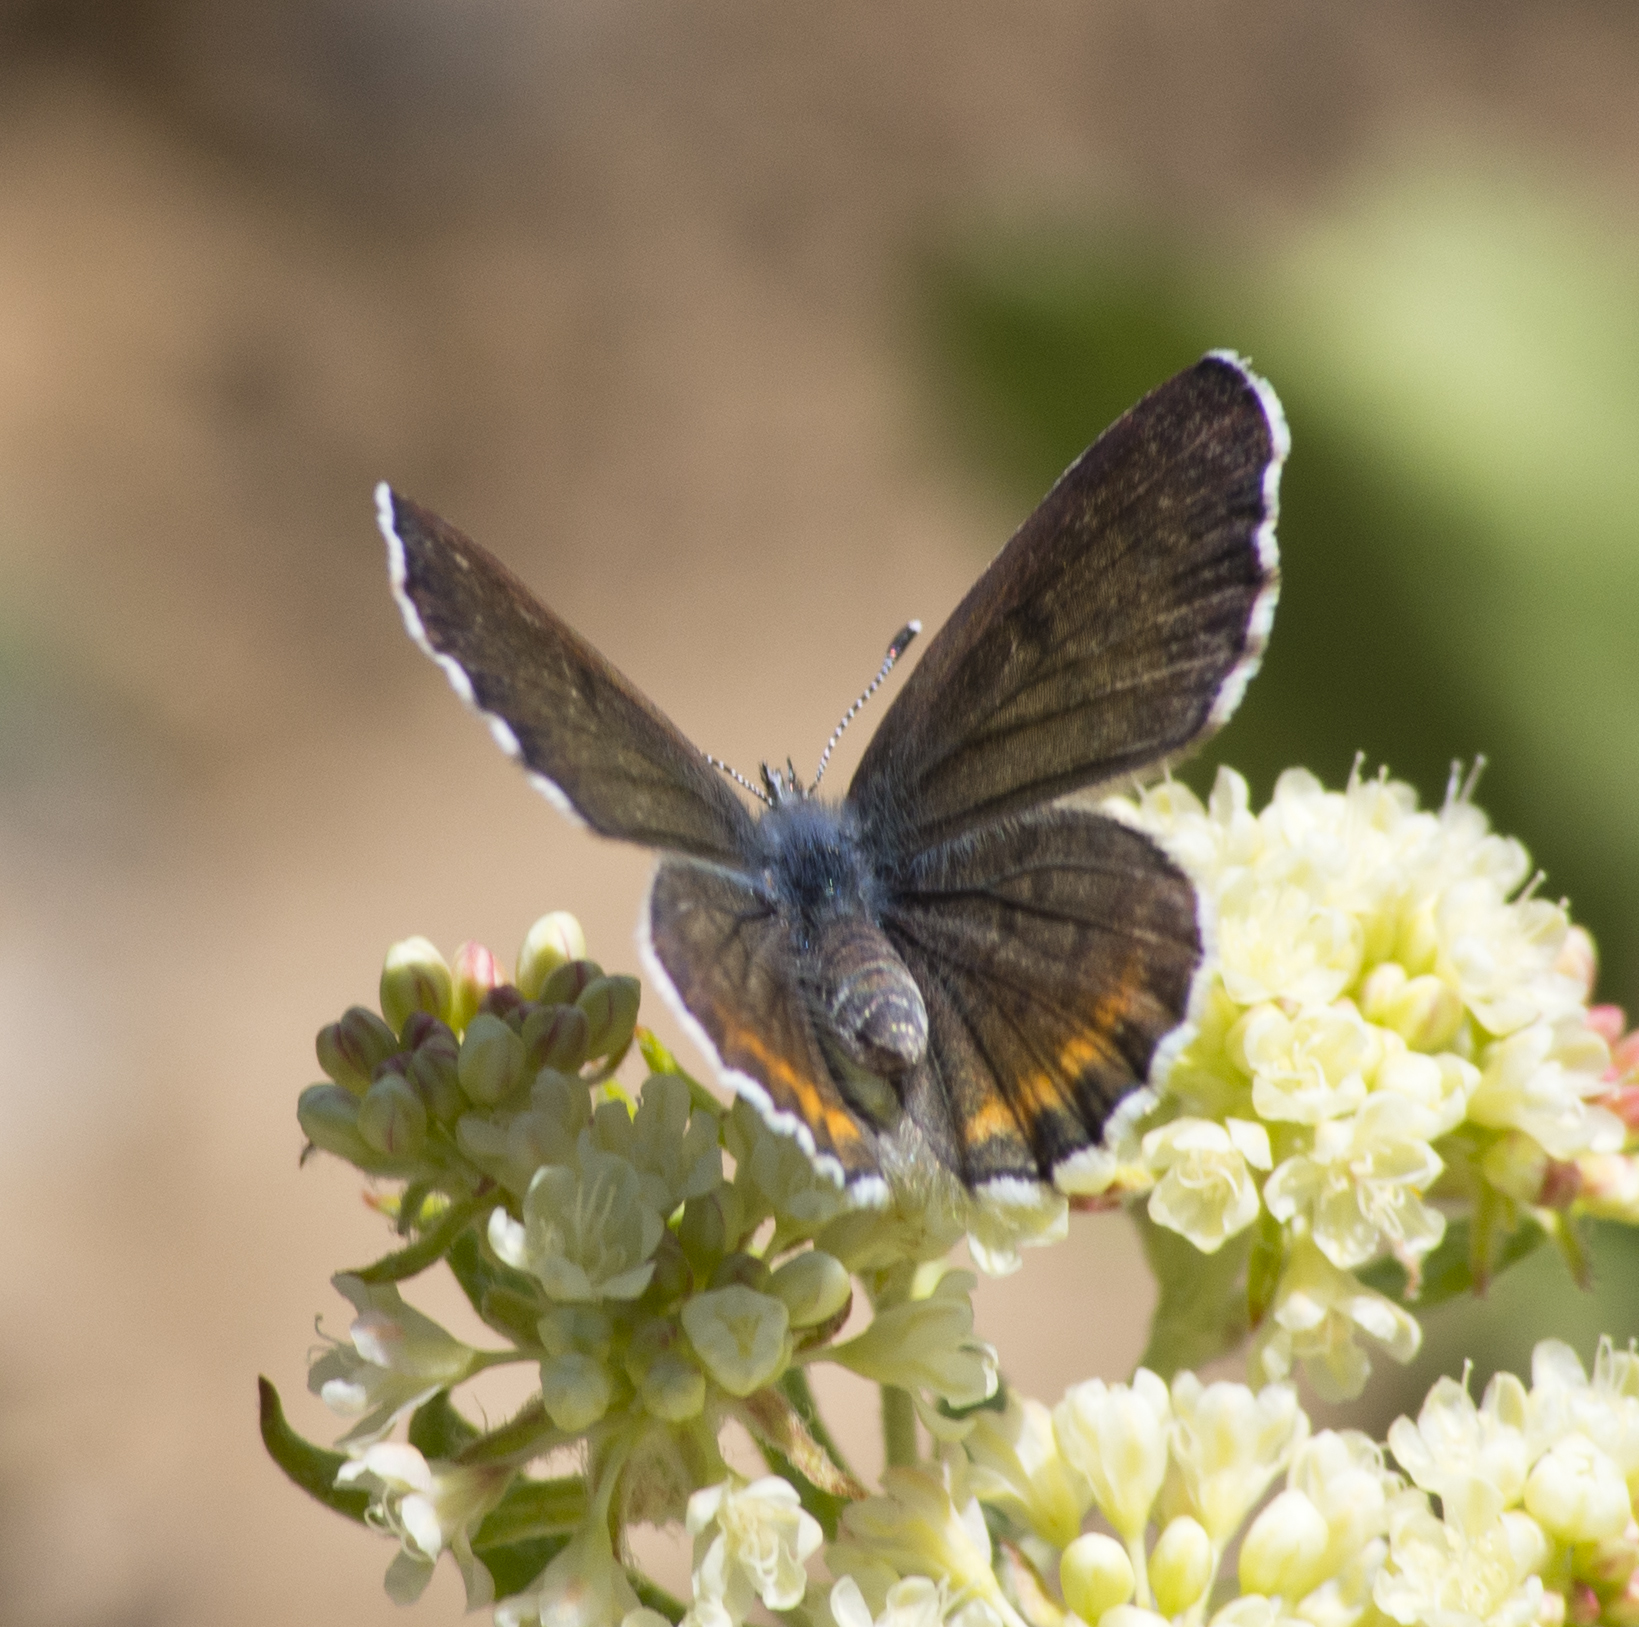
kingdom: Animalia
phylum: Arthropoda
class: Insecta
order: Lepidoptera
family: Lycaenidae
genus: Euphilotes
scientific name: Euphilotes enoptes
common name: Dotted blue
